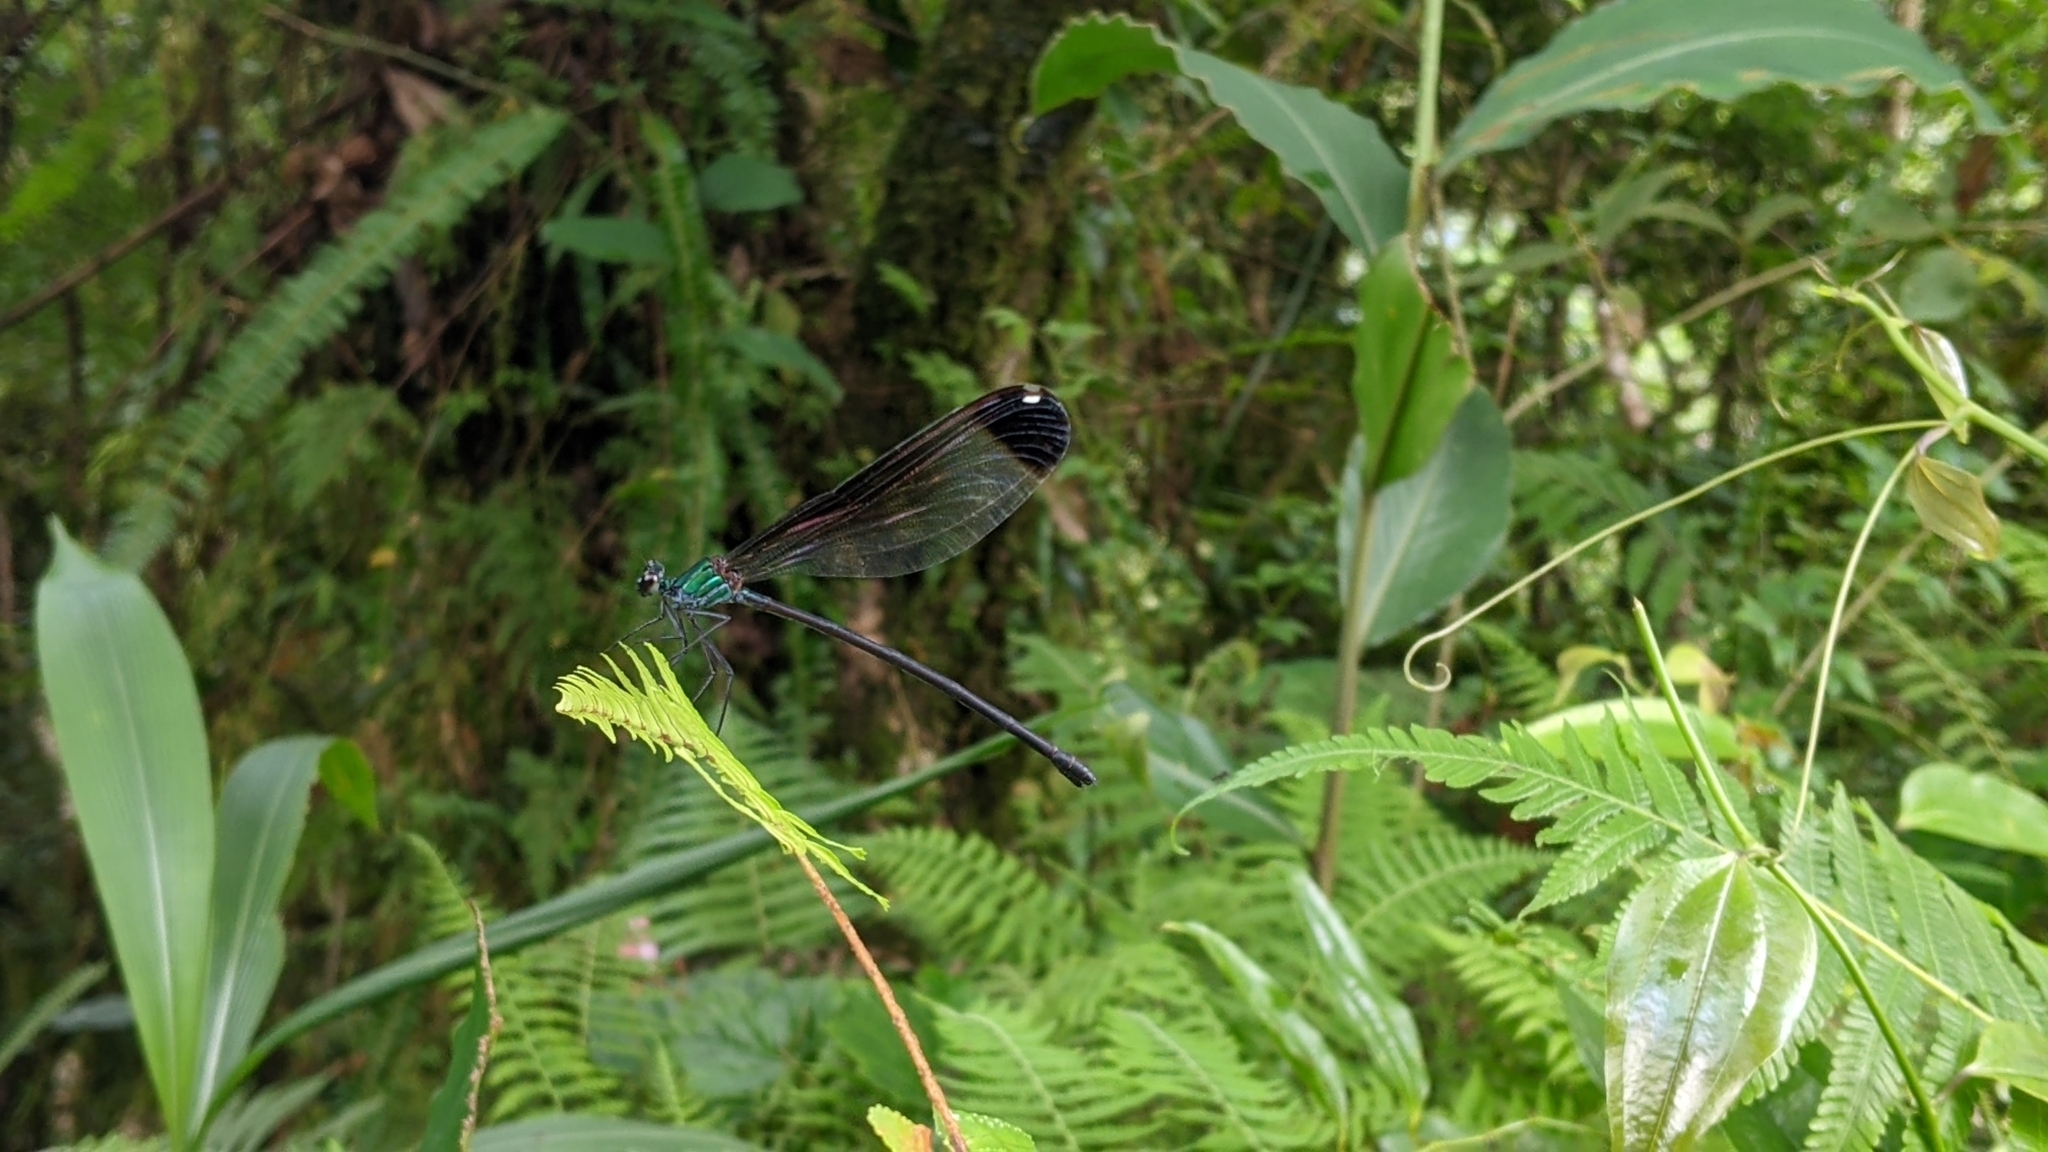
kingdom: Animalia
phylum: Arthropoda
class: Insecta
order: Odonata
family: Calopterygidae
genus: Psolodesmus
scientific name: Psolodesmus mandarinus
